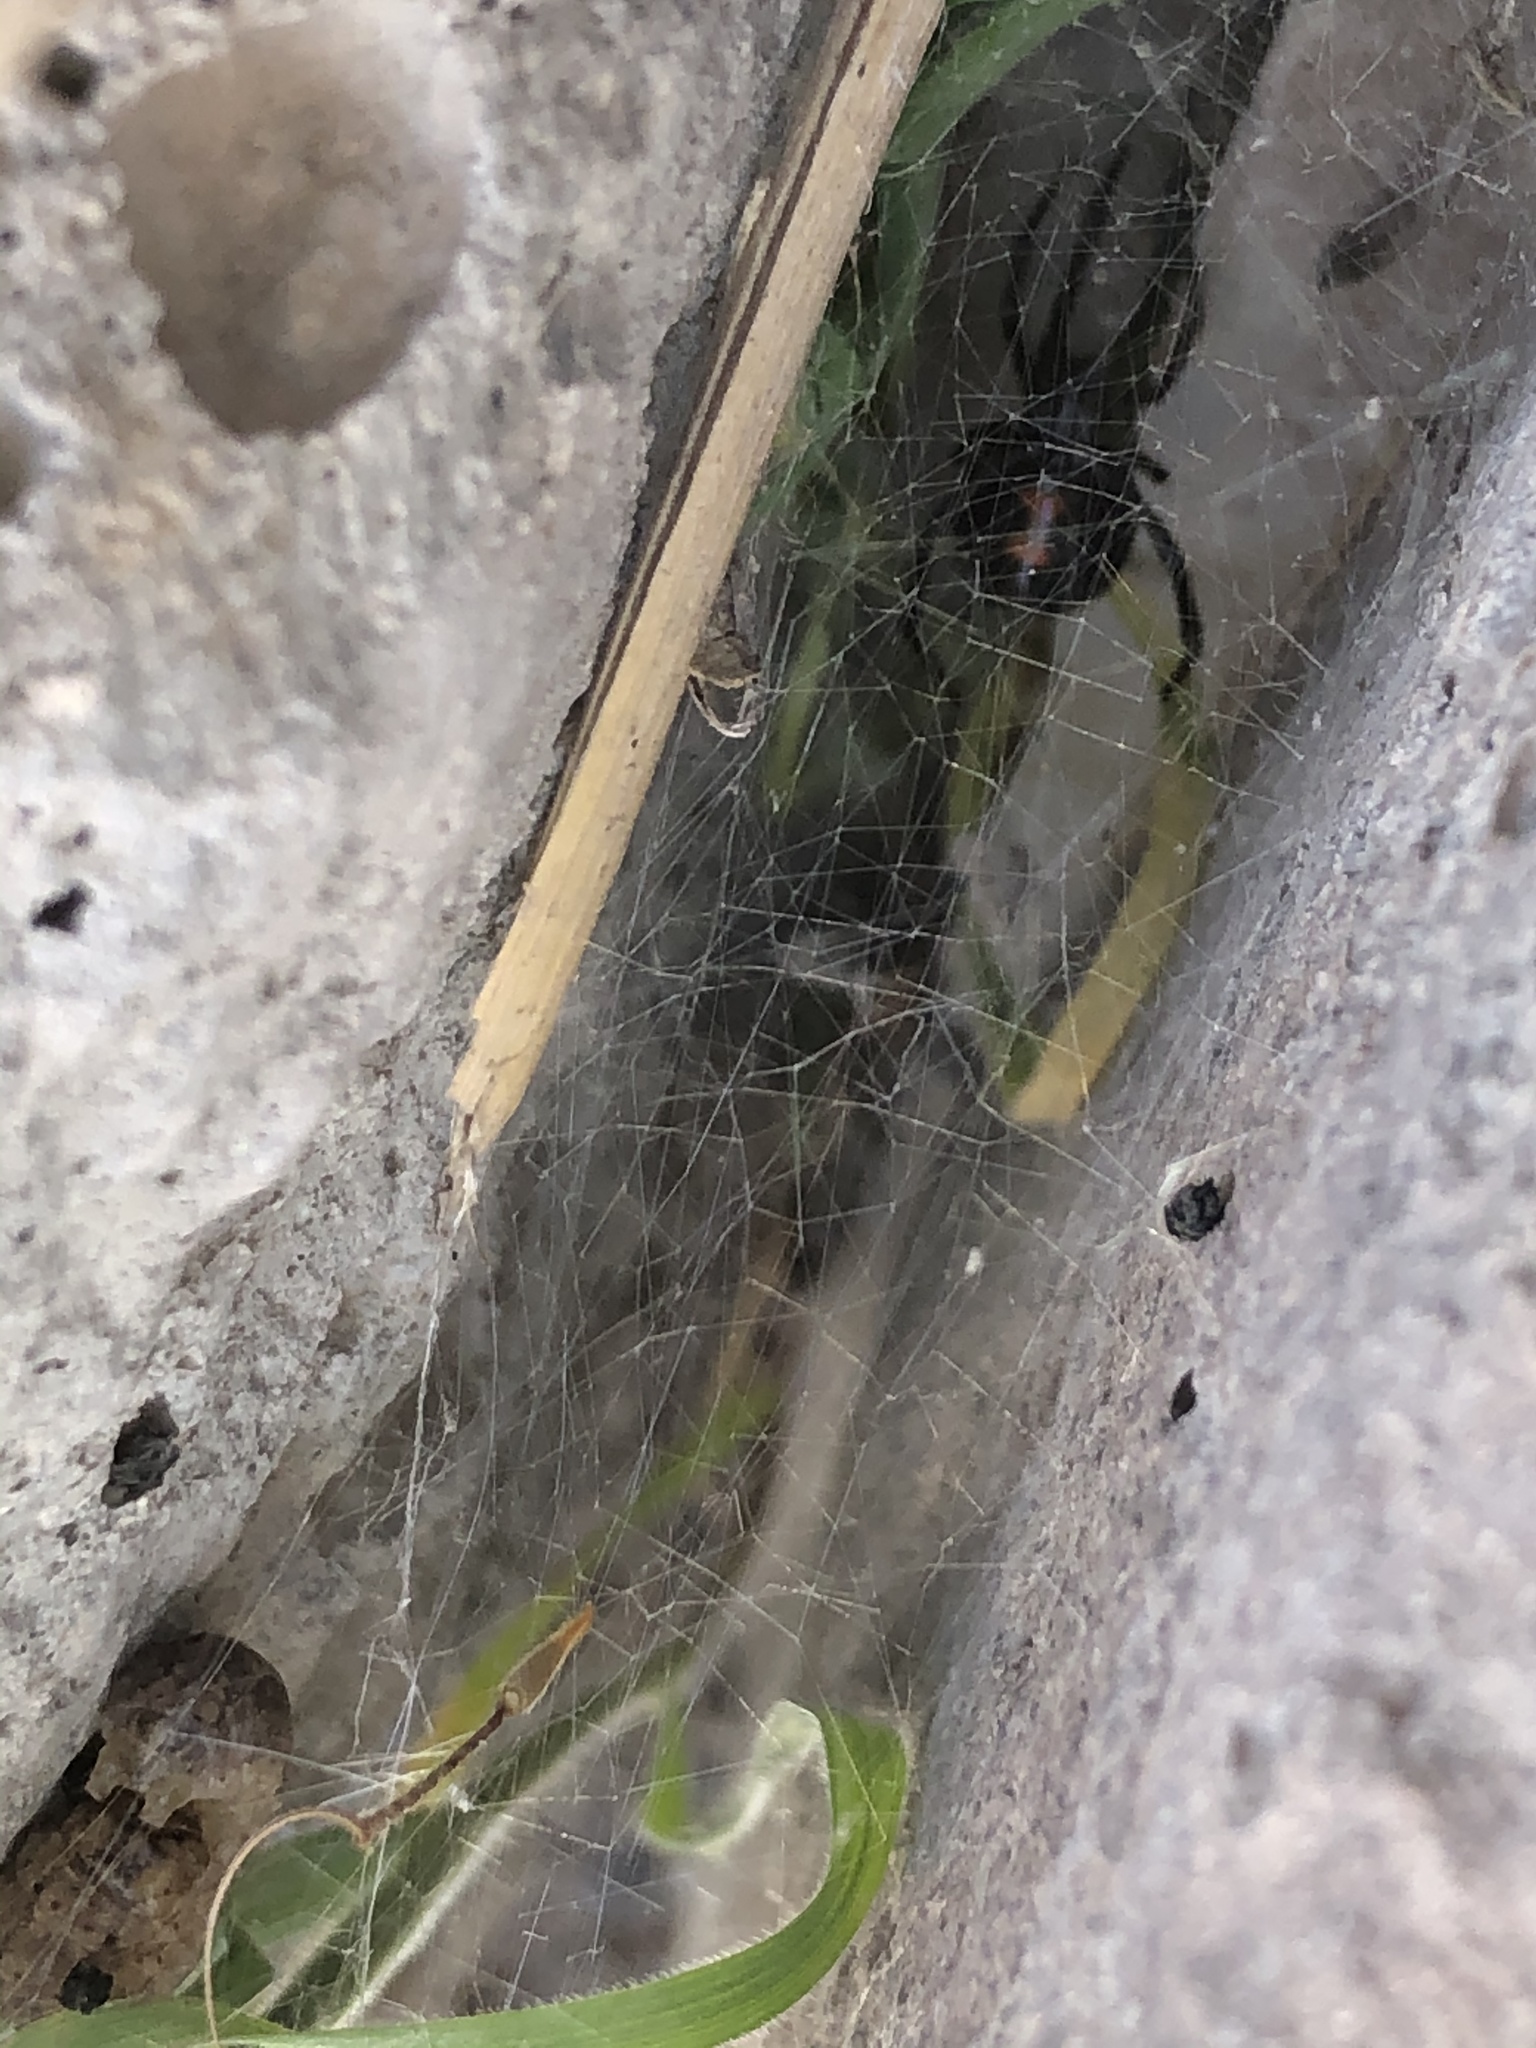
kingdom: Animalia
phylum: Arthropoda
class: Arachnida
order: Araneae
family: Theridiidae
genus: Latrodectus
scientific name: Latrodectus hesperus
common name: Western black widow
